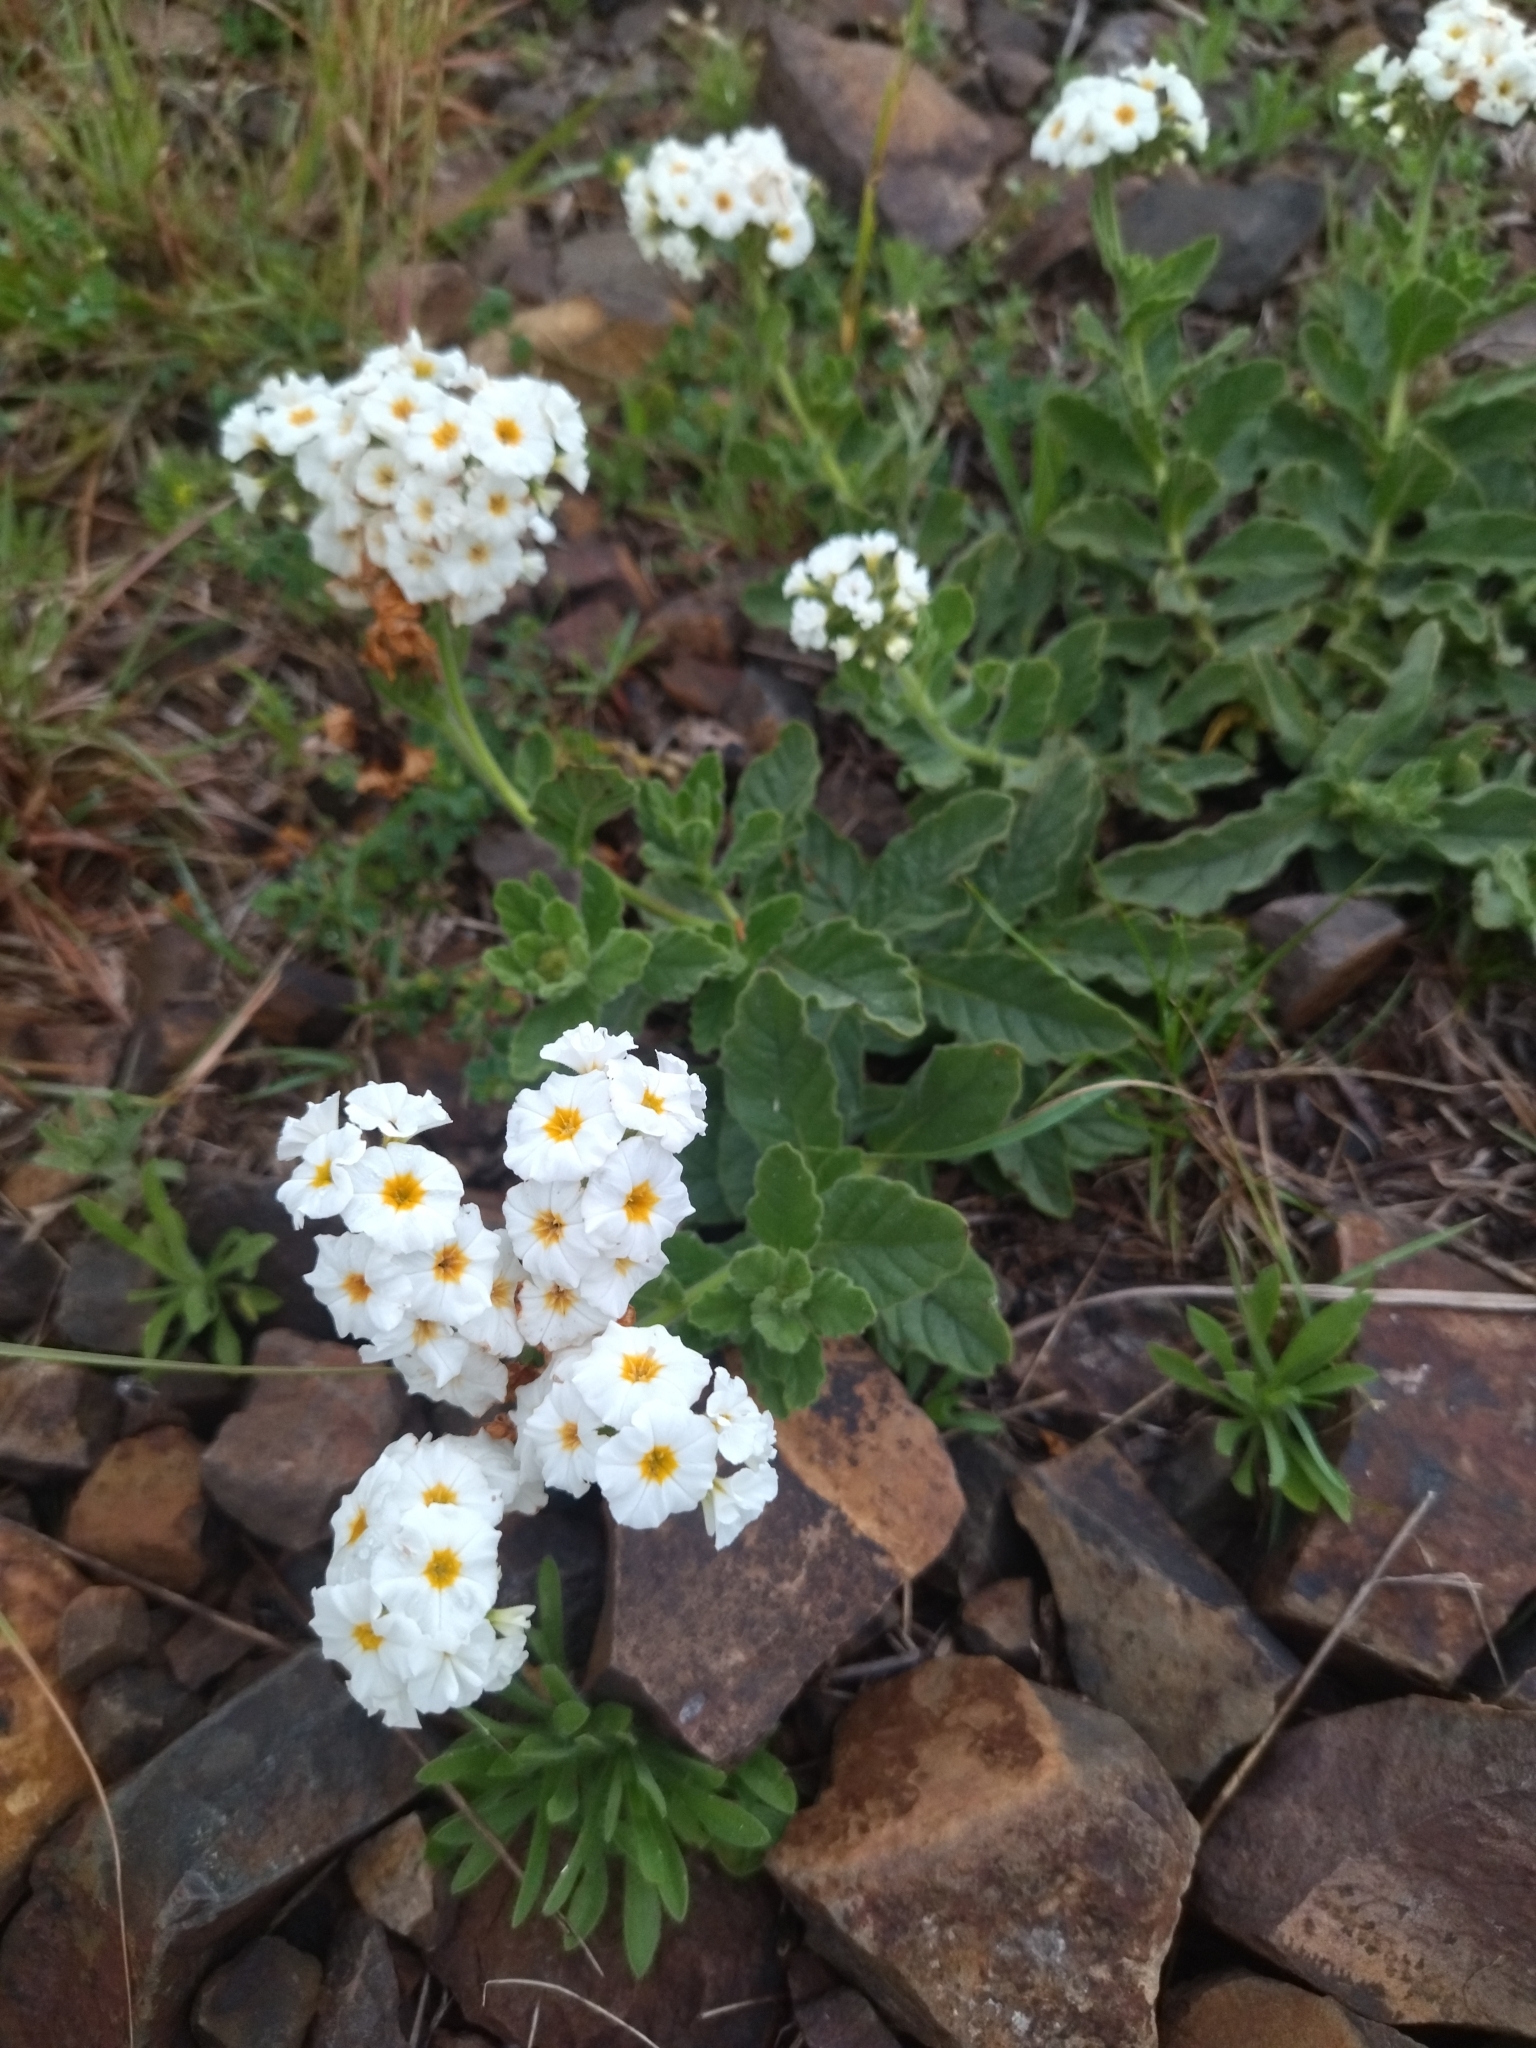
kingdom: Plantae
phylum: Tracheophyta
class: Magnoliopsida
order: Boraginales
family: Heliotropiaceae
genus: Heliotropium
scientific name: Heliotropium amplexicaule
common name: Clasping heliotrope
